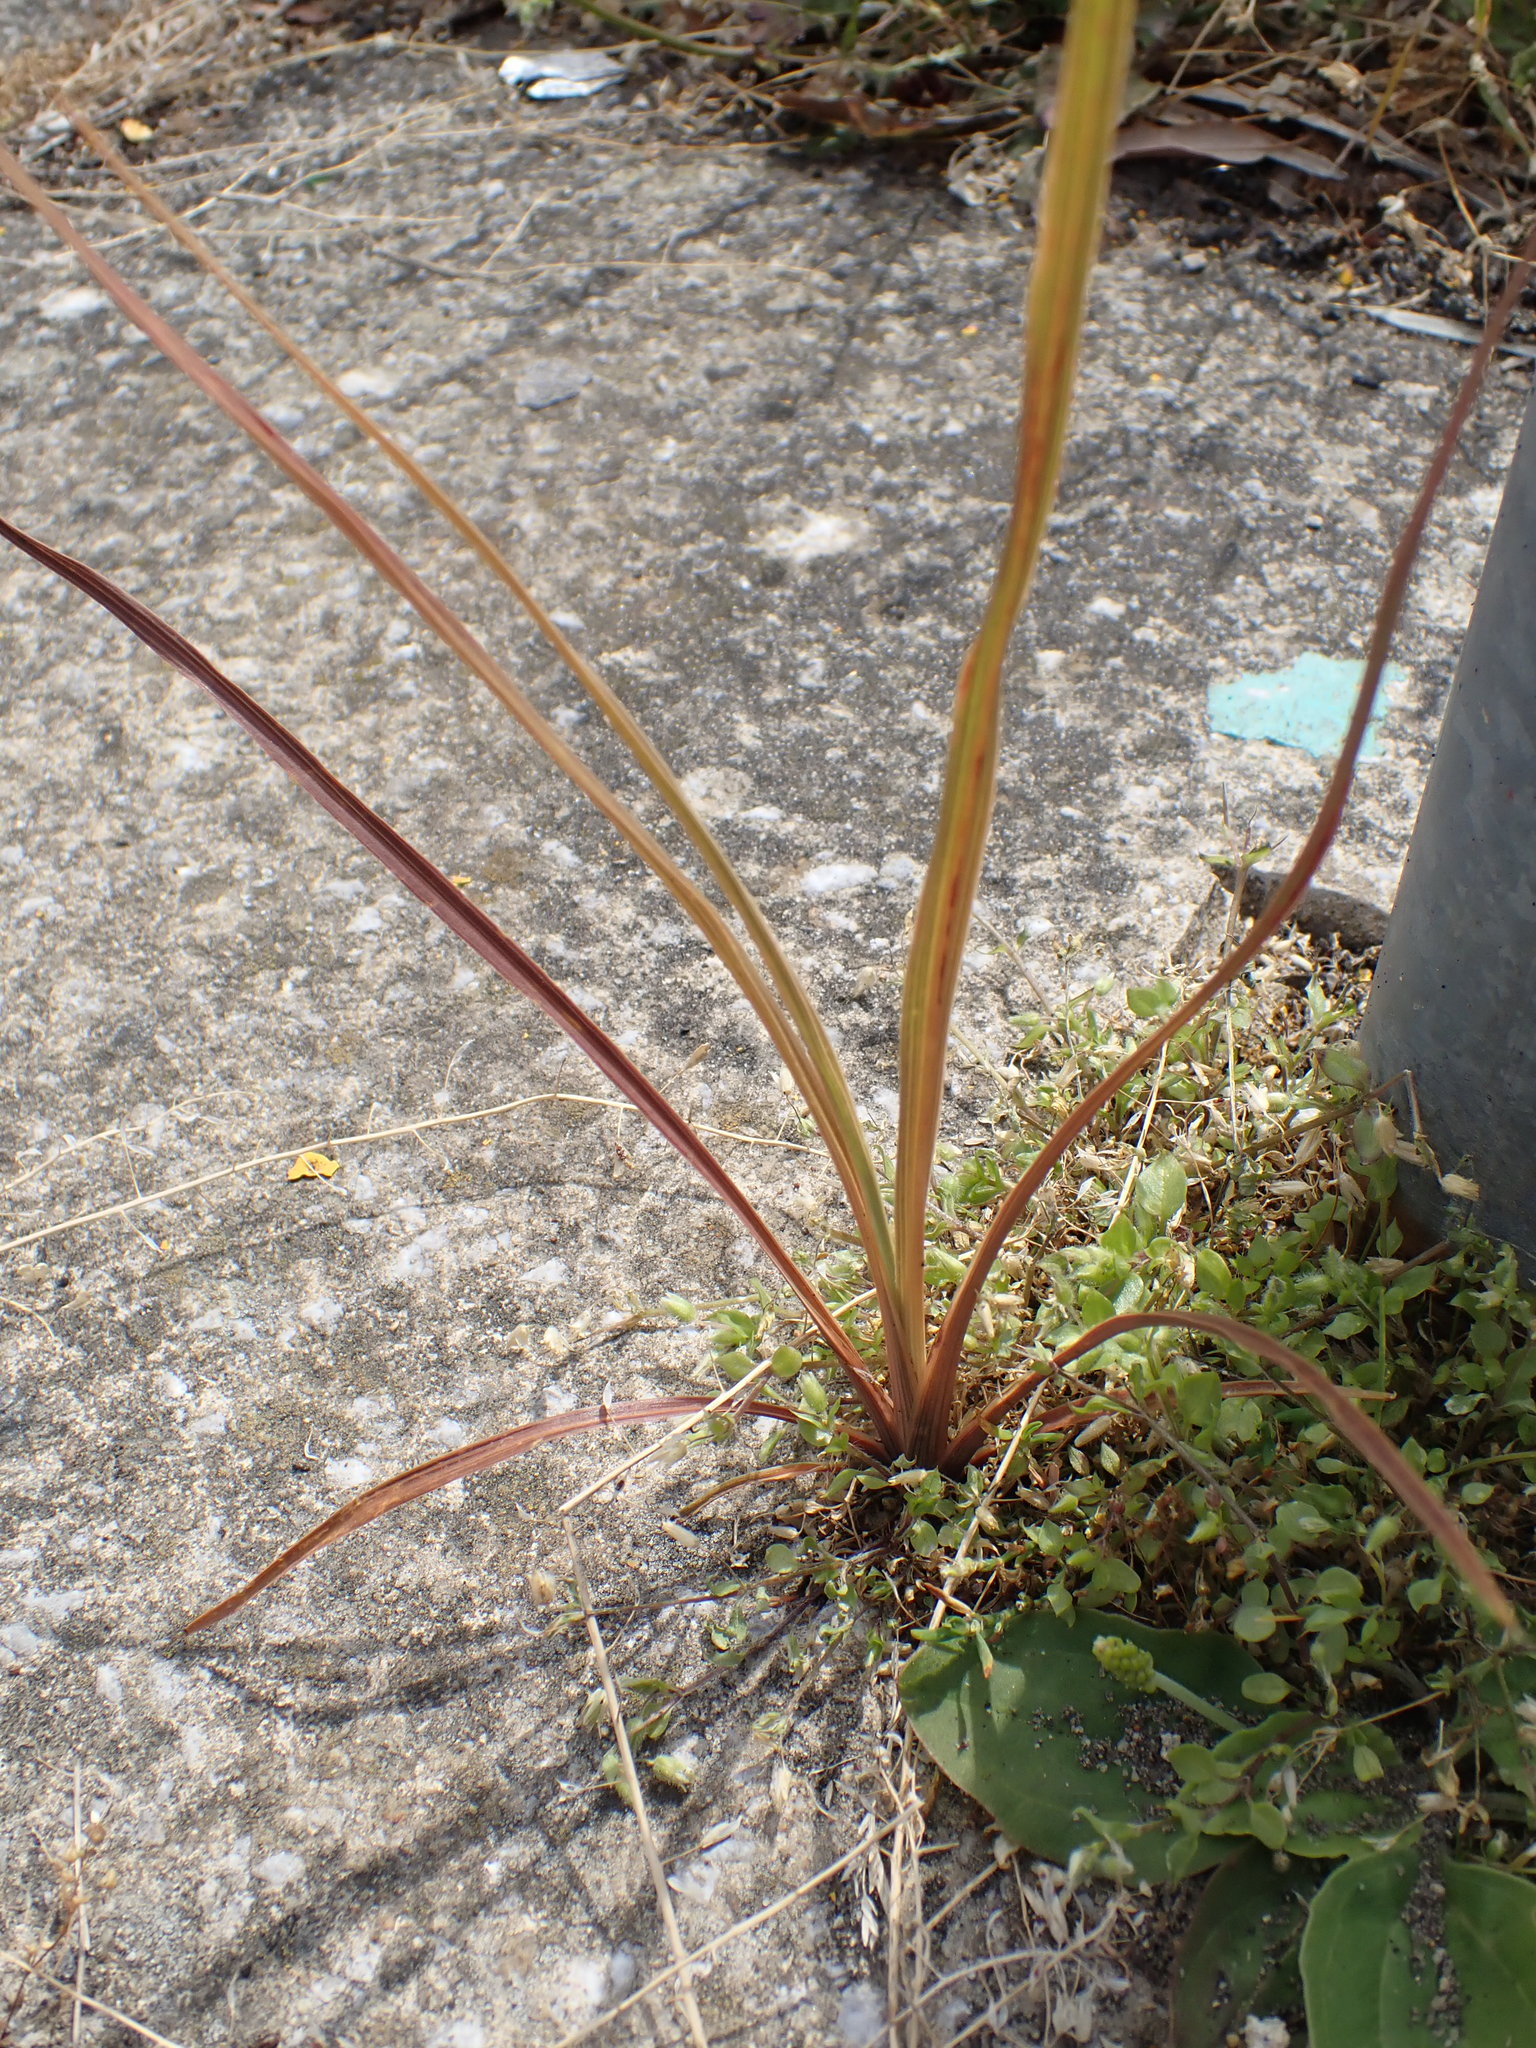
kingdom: Plantae
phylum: Tracheophyta
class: Liliopsida
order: Asparagales
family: Asparagaceae
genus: Cordyline
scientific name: Cordyline australis
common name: Cabbage-palm
